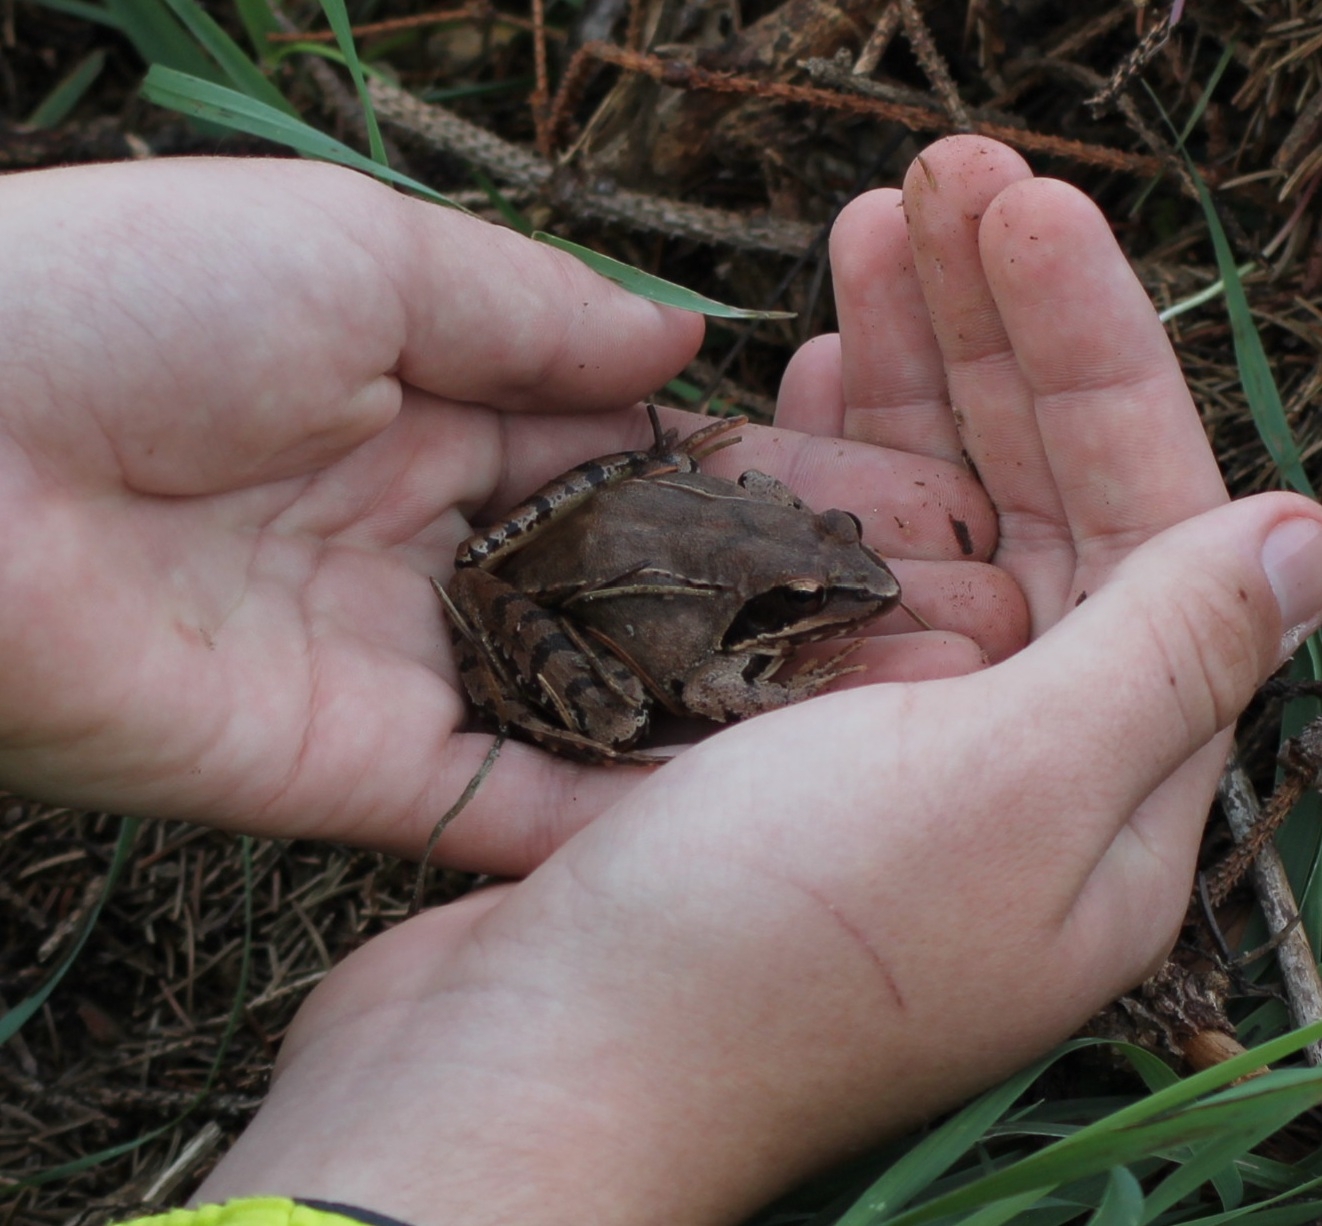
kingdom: Animalia
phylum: Chordata
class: Amphibia
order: Anura
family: Ranidae
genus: Rana
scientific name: Rana dalmatina
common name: Agile frog
